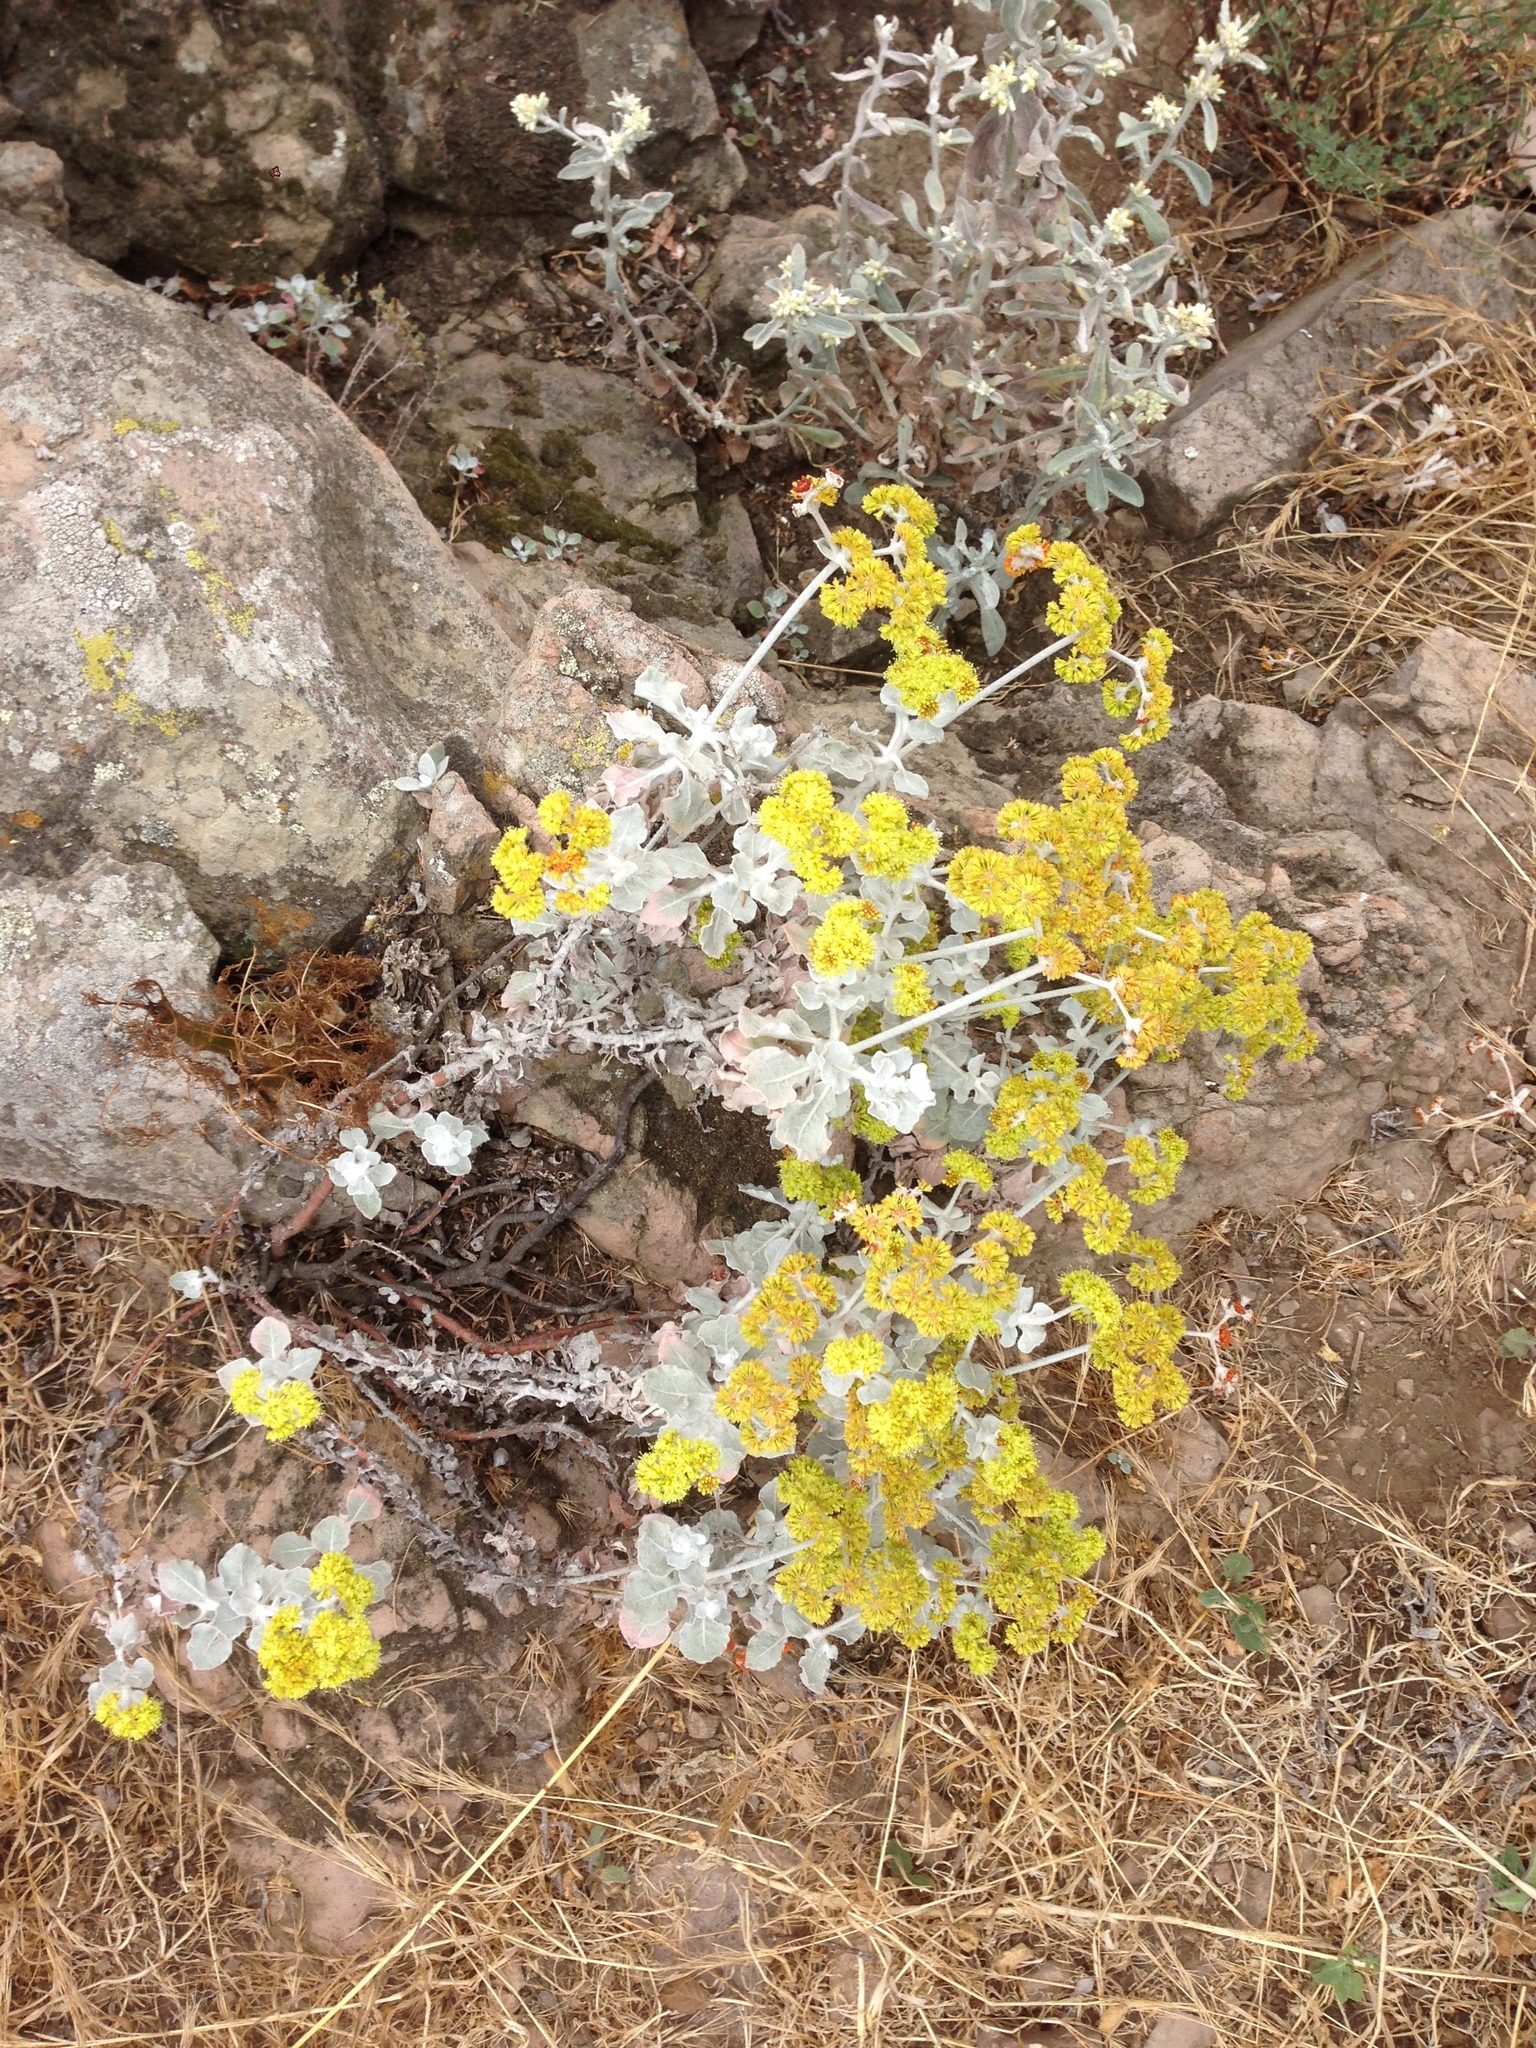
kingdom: Plantae
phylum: Tracheophyta
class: Magnoliopsida
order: Caryophyllales
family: Polygonaceae
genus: Eriogonum
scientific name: Eriogonum crocatum
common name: Saffron wild buckwheat
